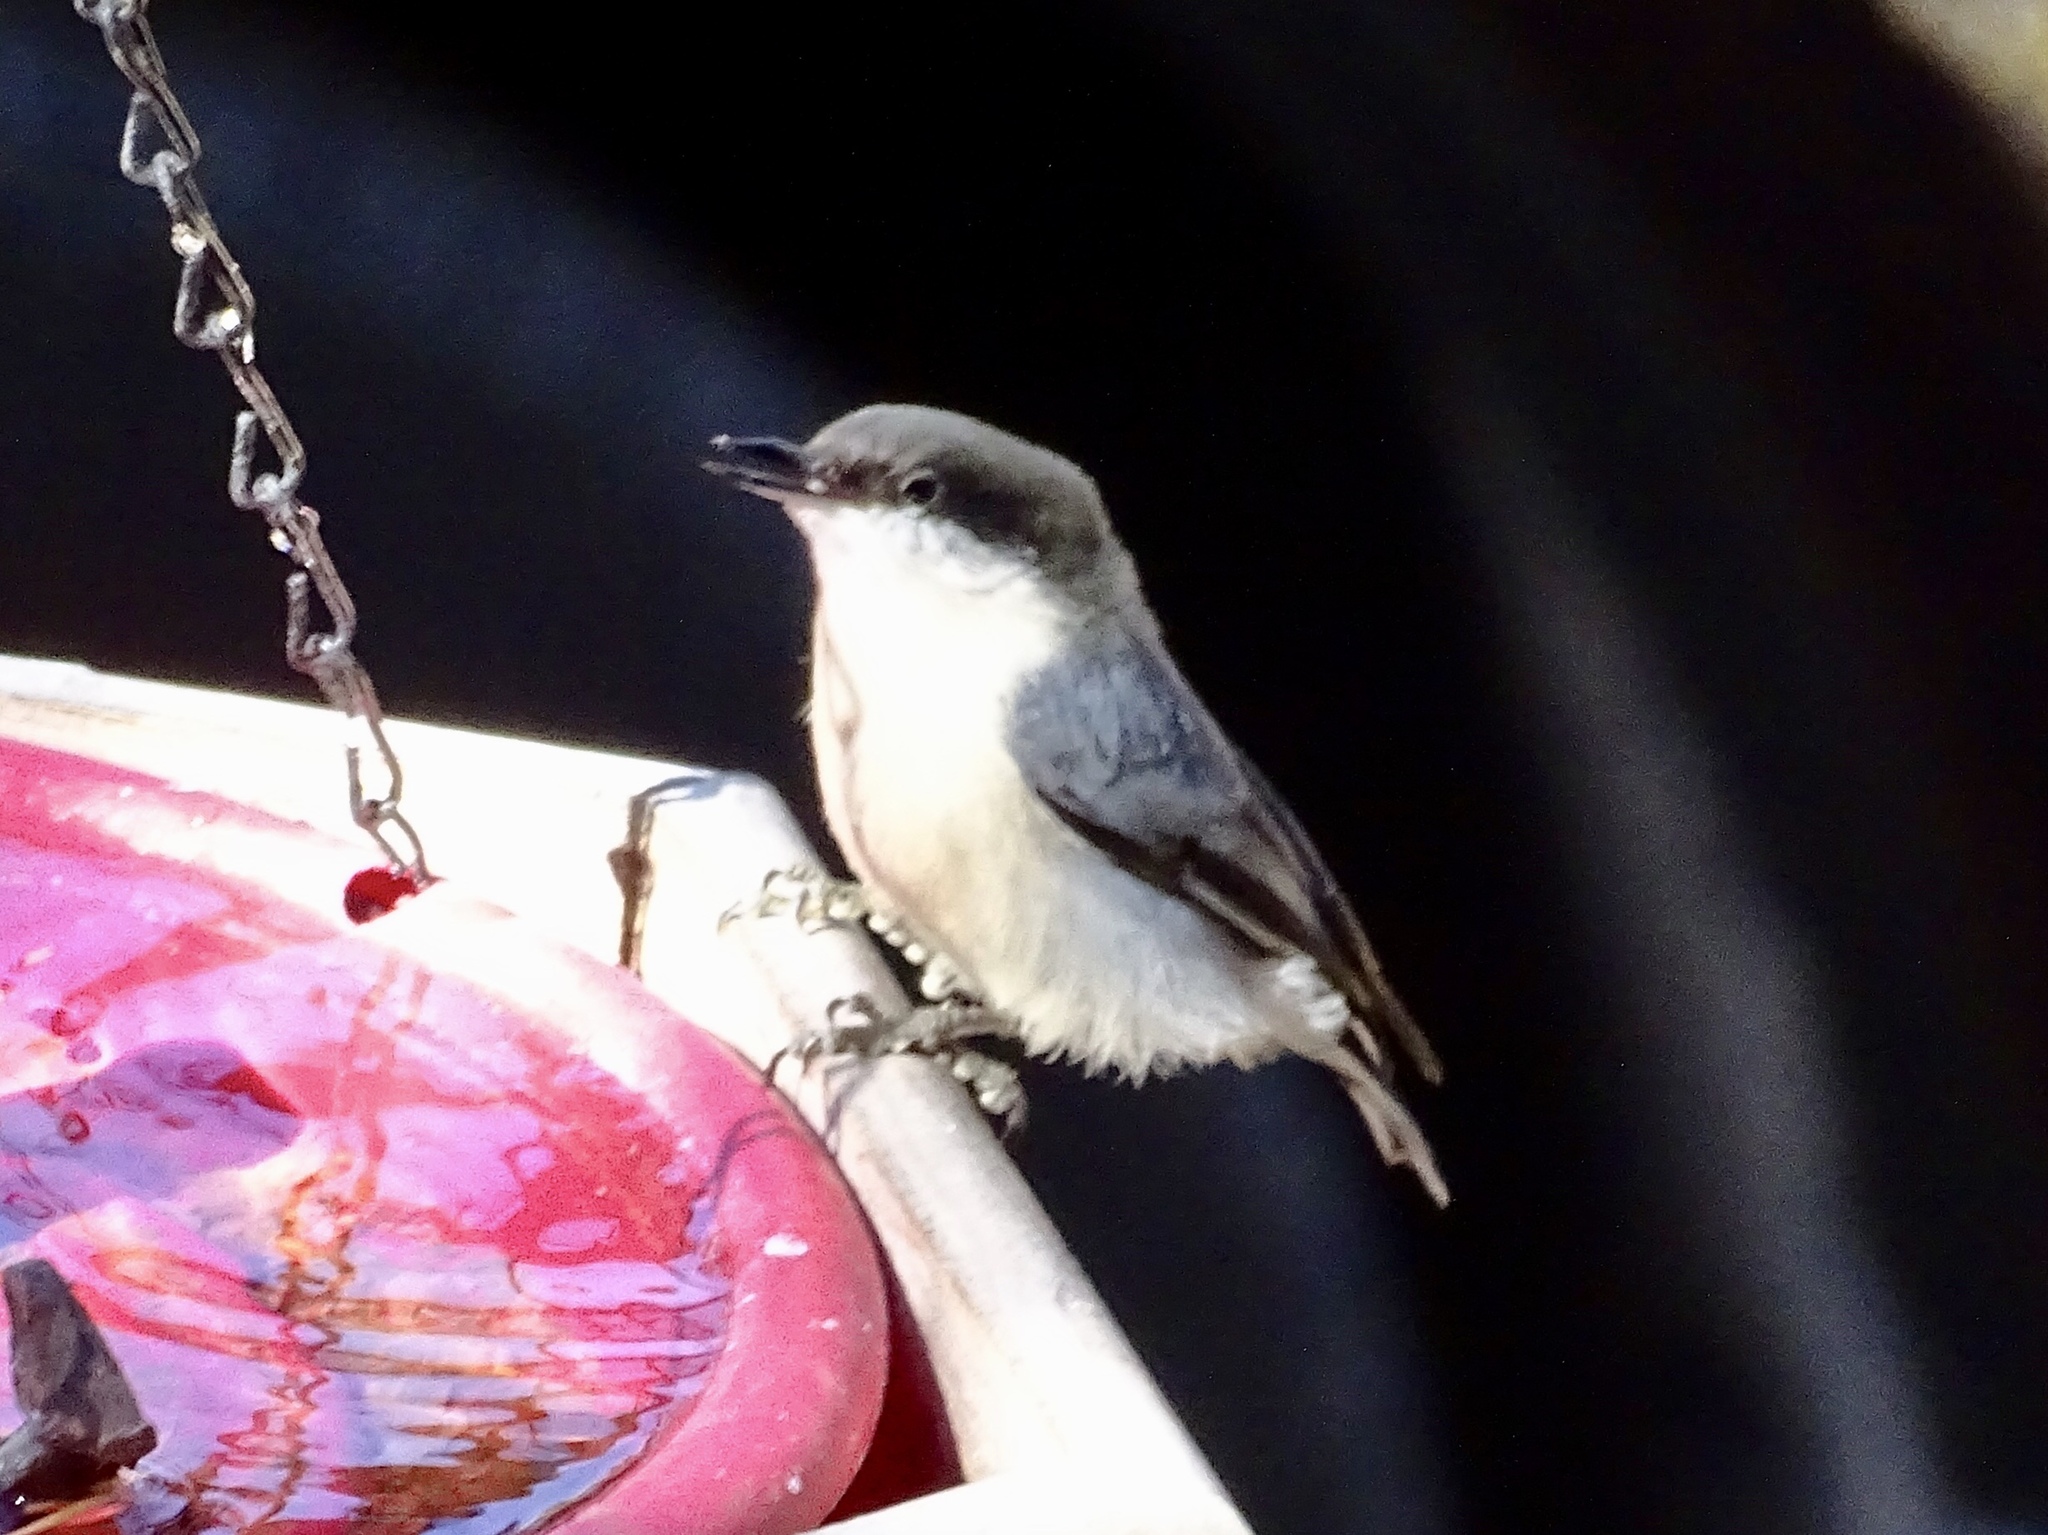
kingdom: Animalia
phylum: Chordata
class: Aves
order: Passeriformes
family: Sittidae
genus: Sitta
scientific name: Sitta pygmaea
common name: Pygmy nuthatch
